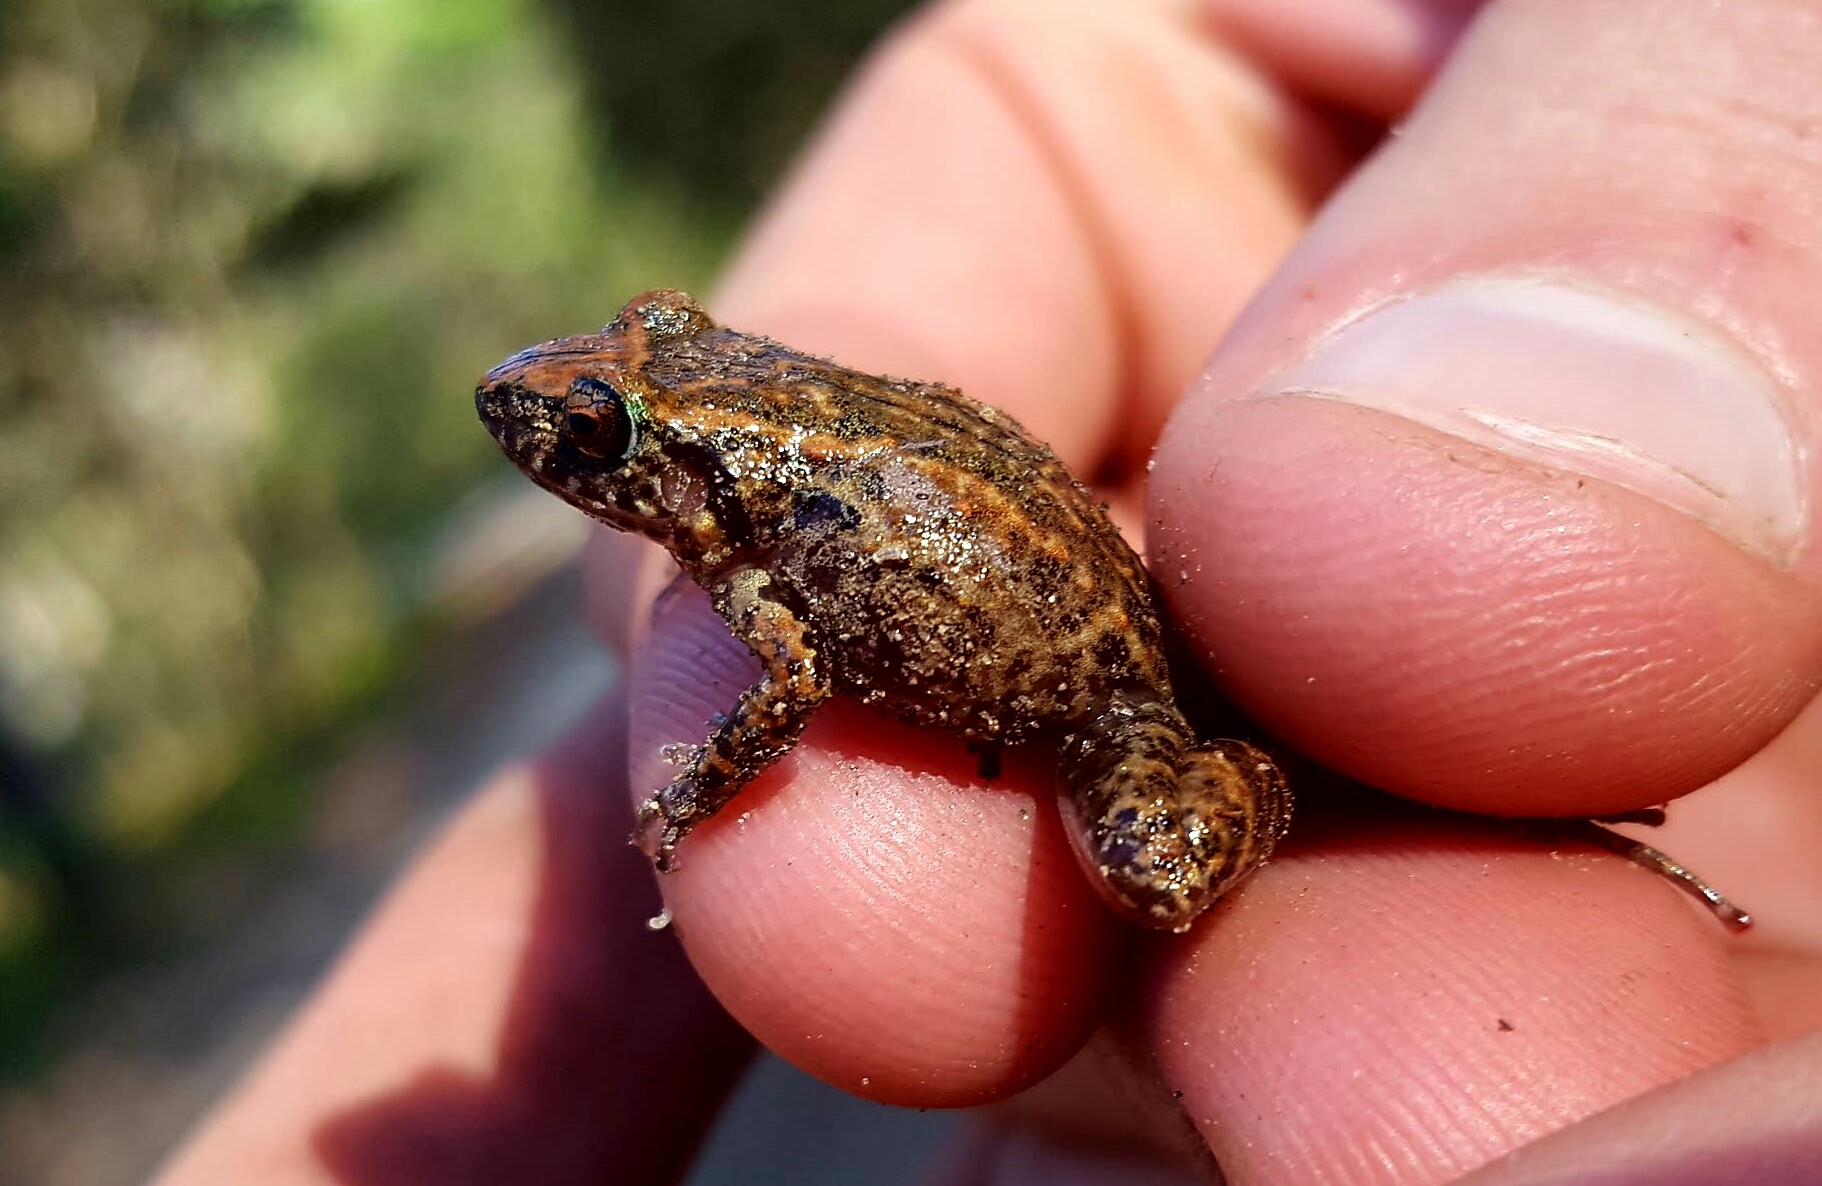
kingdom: Animalia
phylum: Chordata
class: Amphibia
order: Anura
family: Eleutherodactylidae
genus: Eleutherodactylus
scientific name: Eleutherodactylus planirostris
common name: Greenhouse frog
